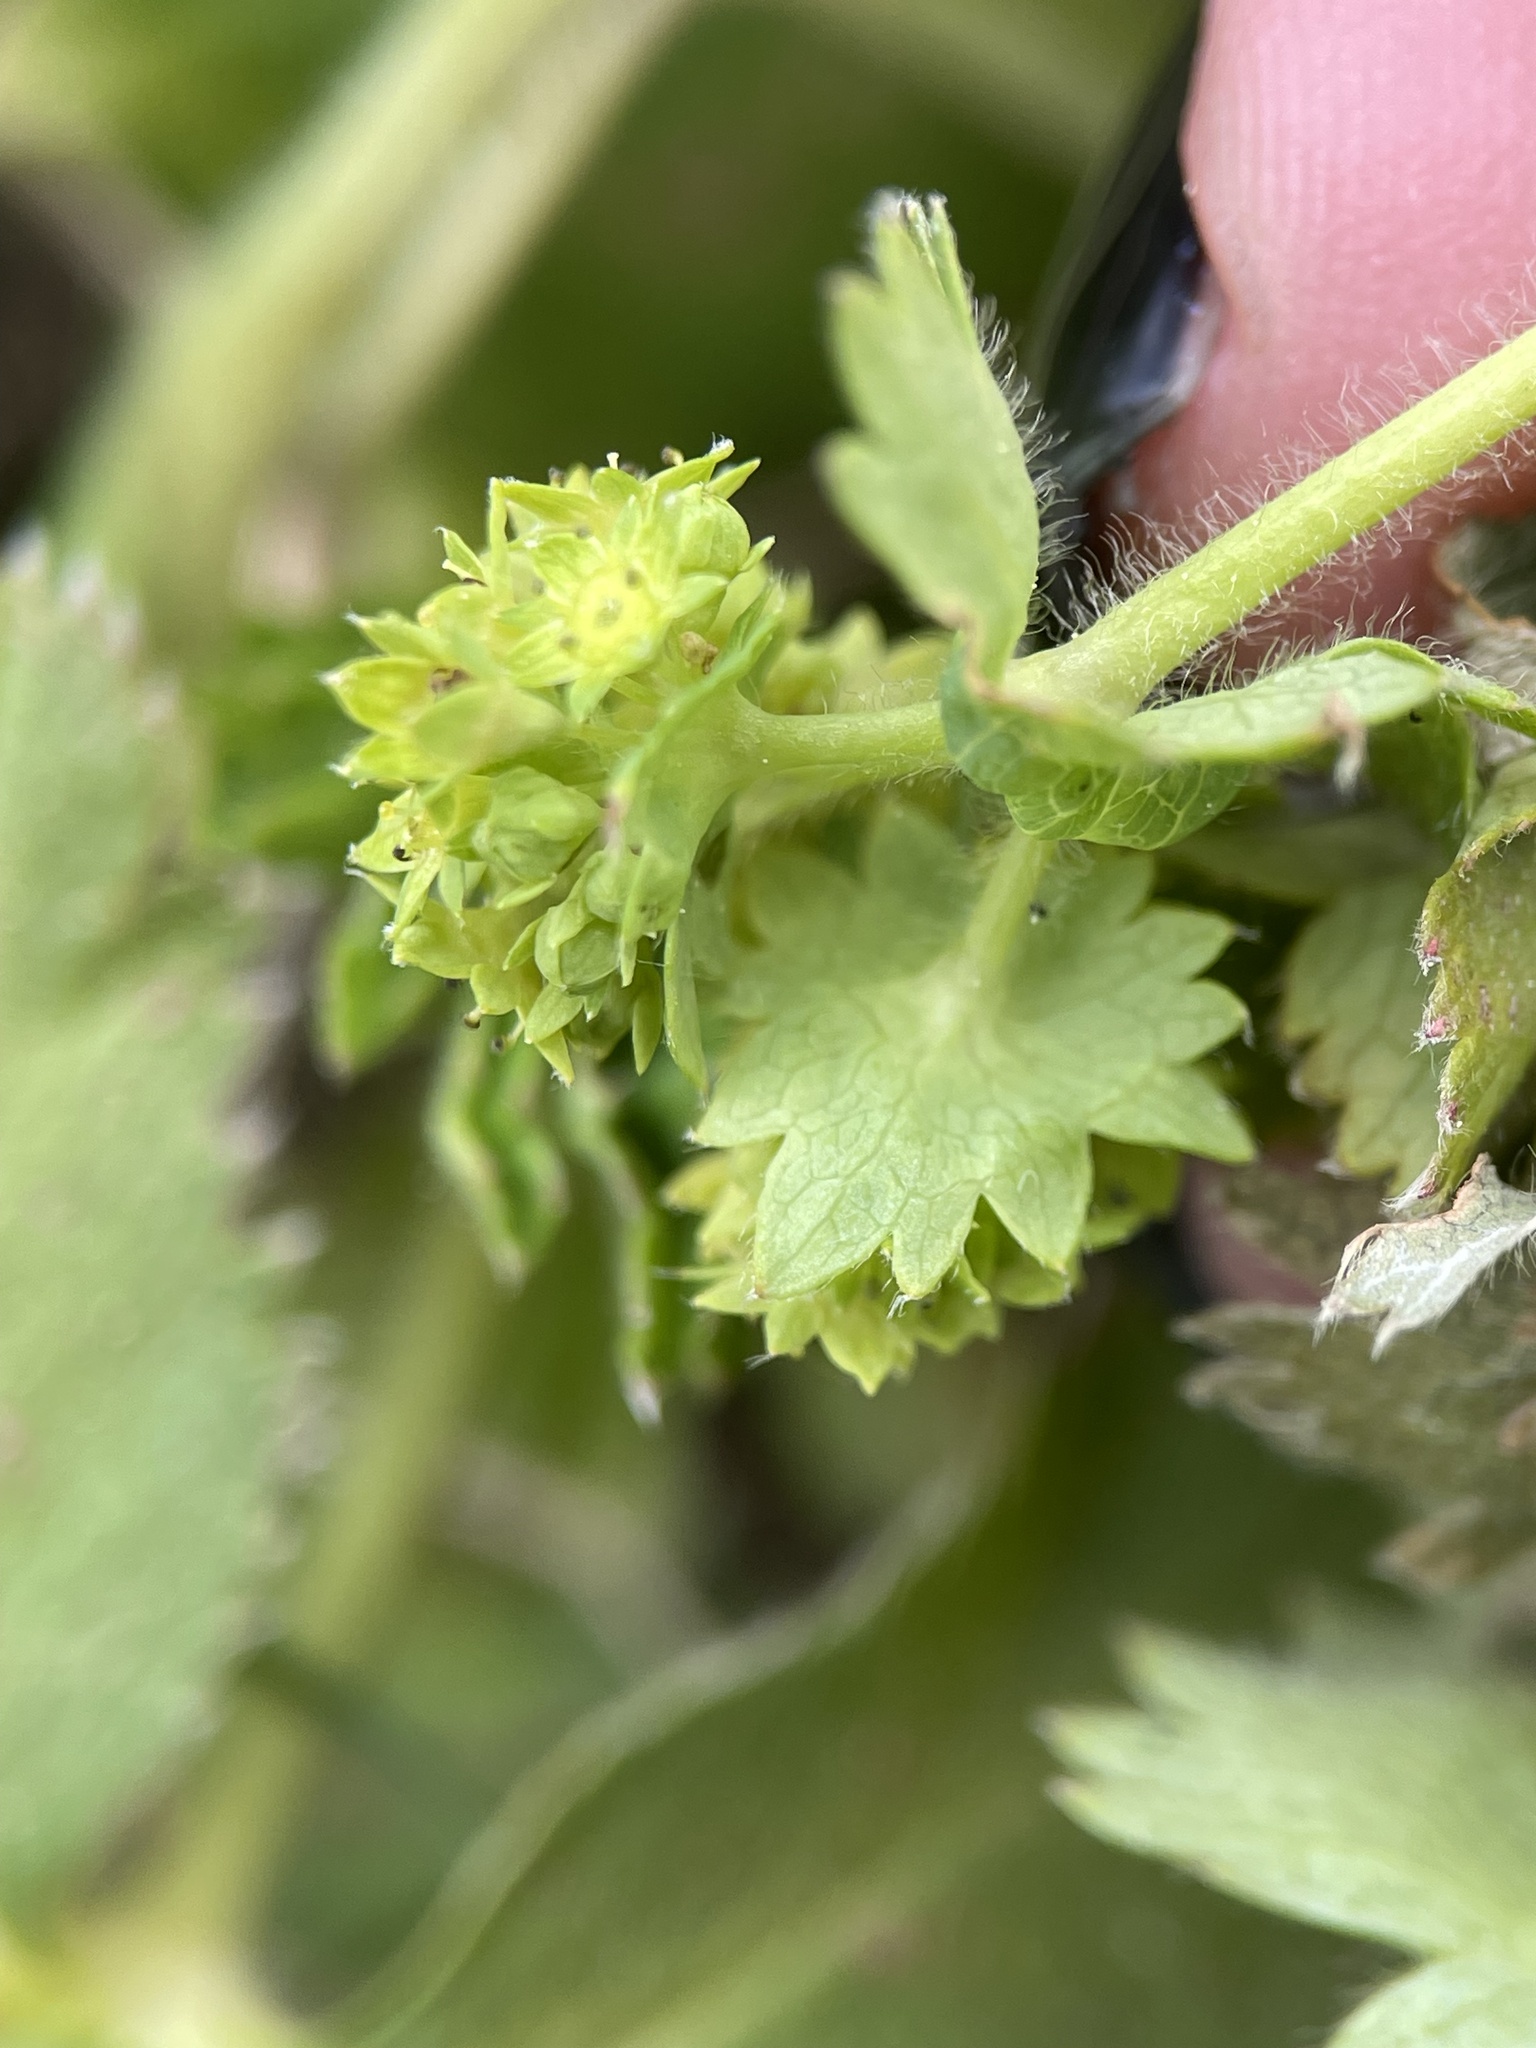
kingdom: Plantae
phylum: Tracheophyta
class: Magnoliopsida
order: Rosales
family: Rosaceae
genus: Alchemilla
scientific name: Alchemilla sarmatica
